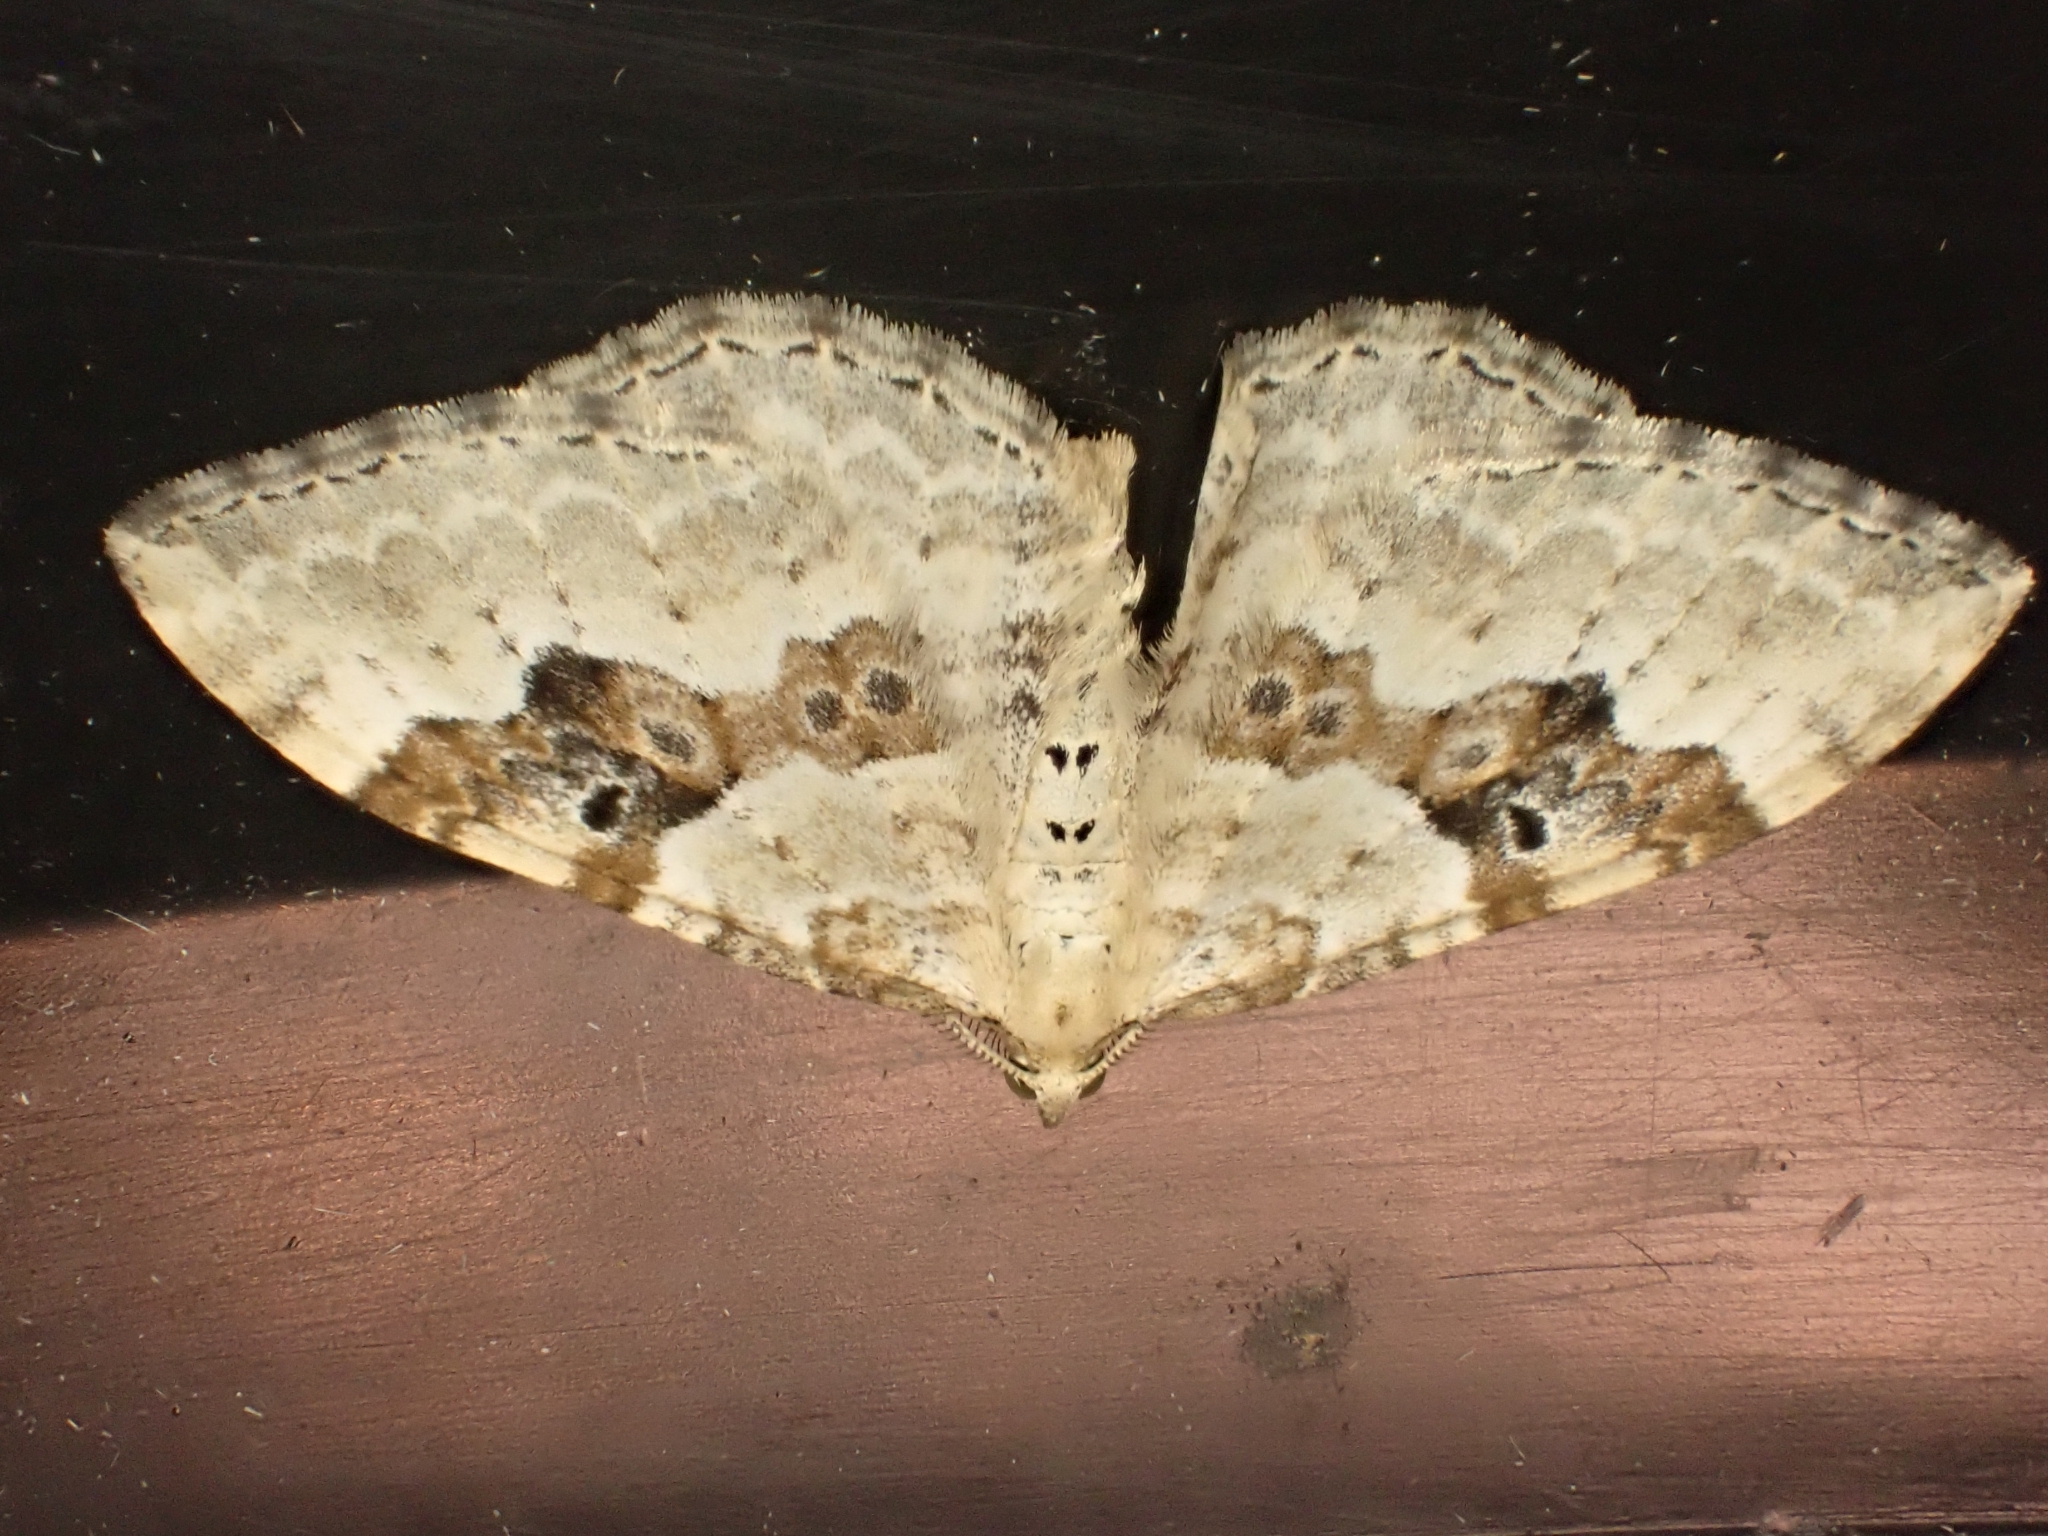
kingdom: Animalia
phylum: Arthropoda
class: Insecta
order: Lepidoptera
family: Geometridae
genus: Xanthorhoe
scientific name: Xanthorhoe montanata
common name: Silver-ground carpet
